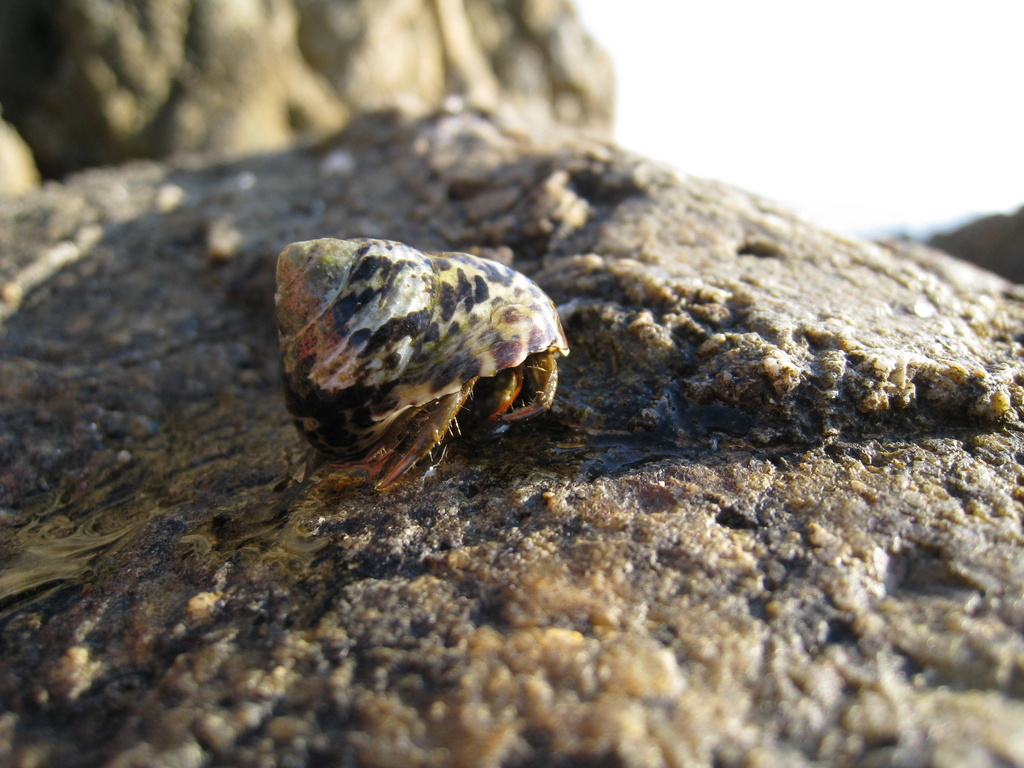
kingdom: Animalia
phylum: Arthropoda
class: Malacostraca
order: Decapoda
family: Diogenidae
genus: Clibanarius
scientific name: Clibanarius erythropus
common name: Hermit crab
